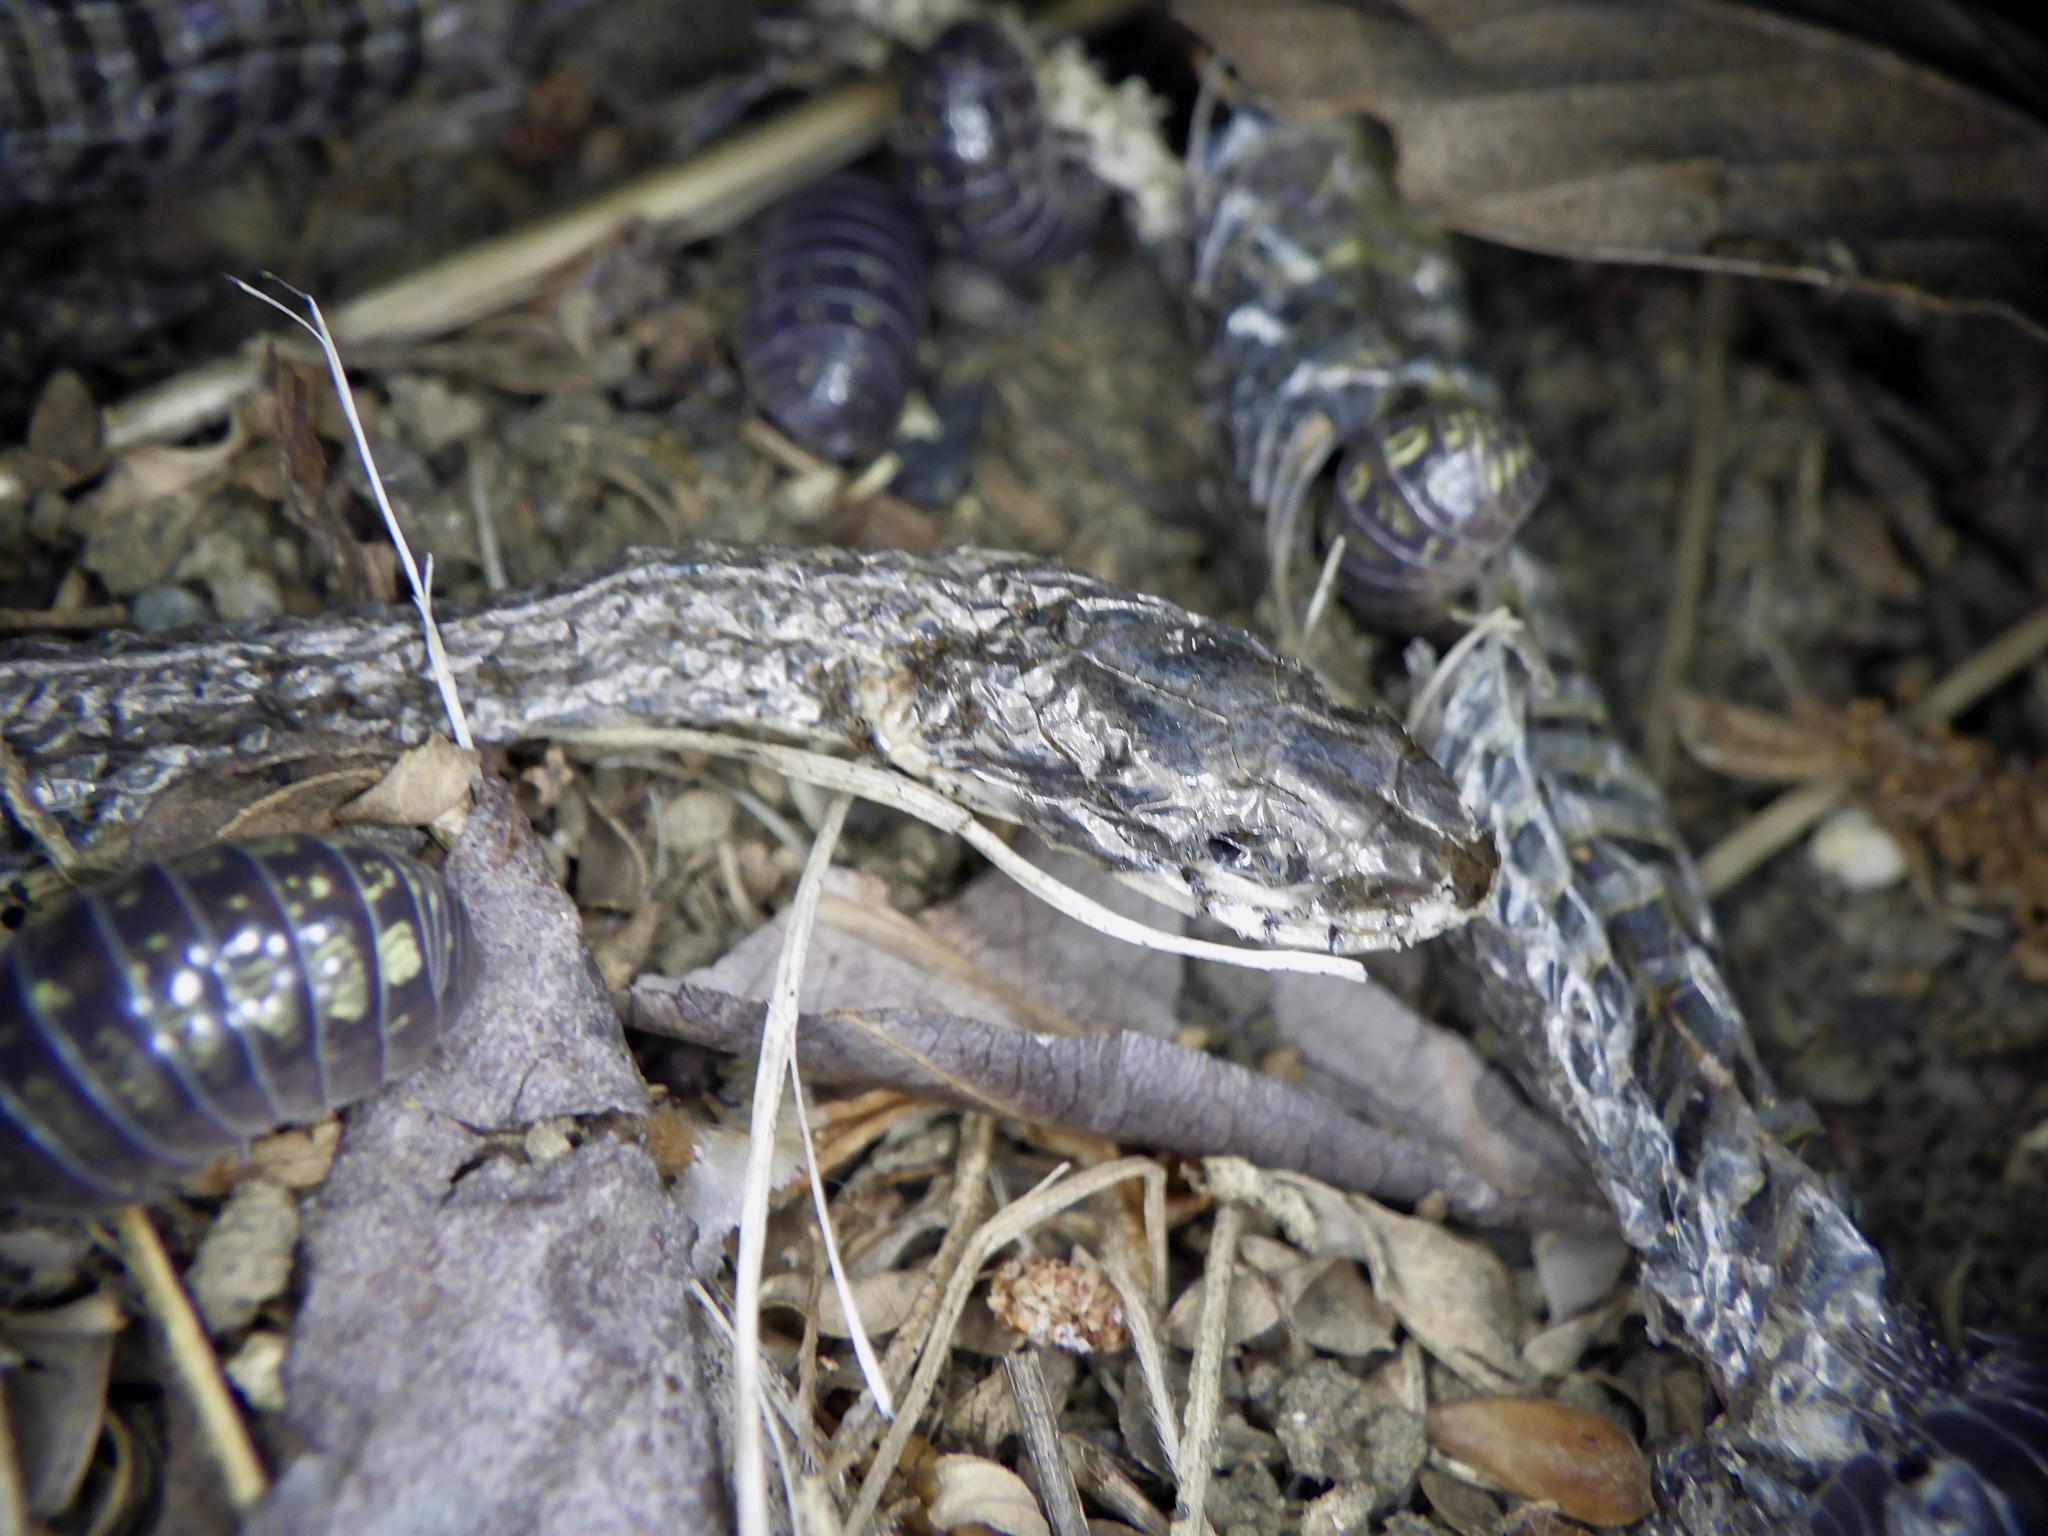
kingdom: Animalia
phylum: Chordata
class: Squamata
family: Colubridae
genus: Hebius
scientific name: Hebius vibakari
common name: Japanese keelback
